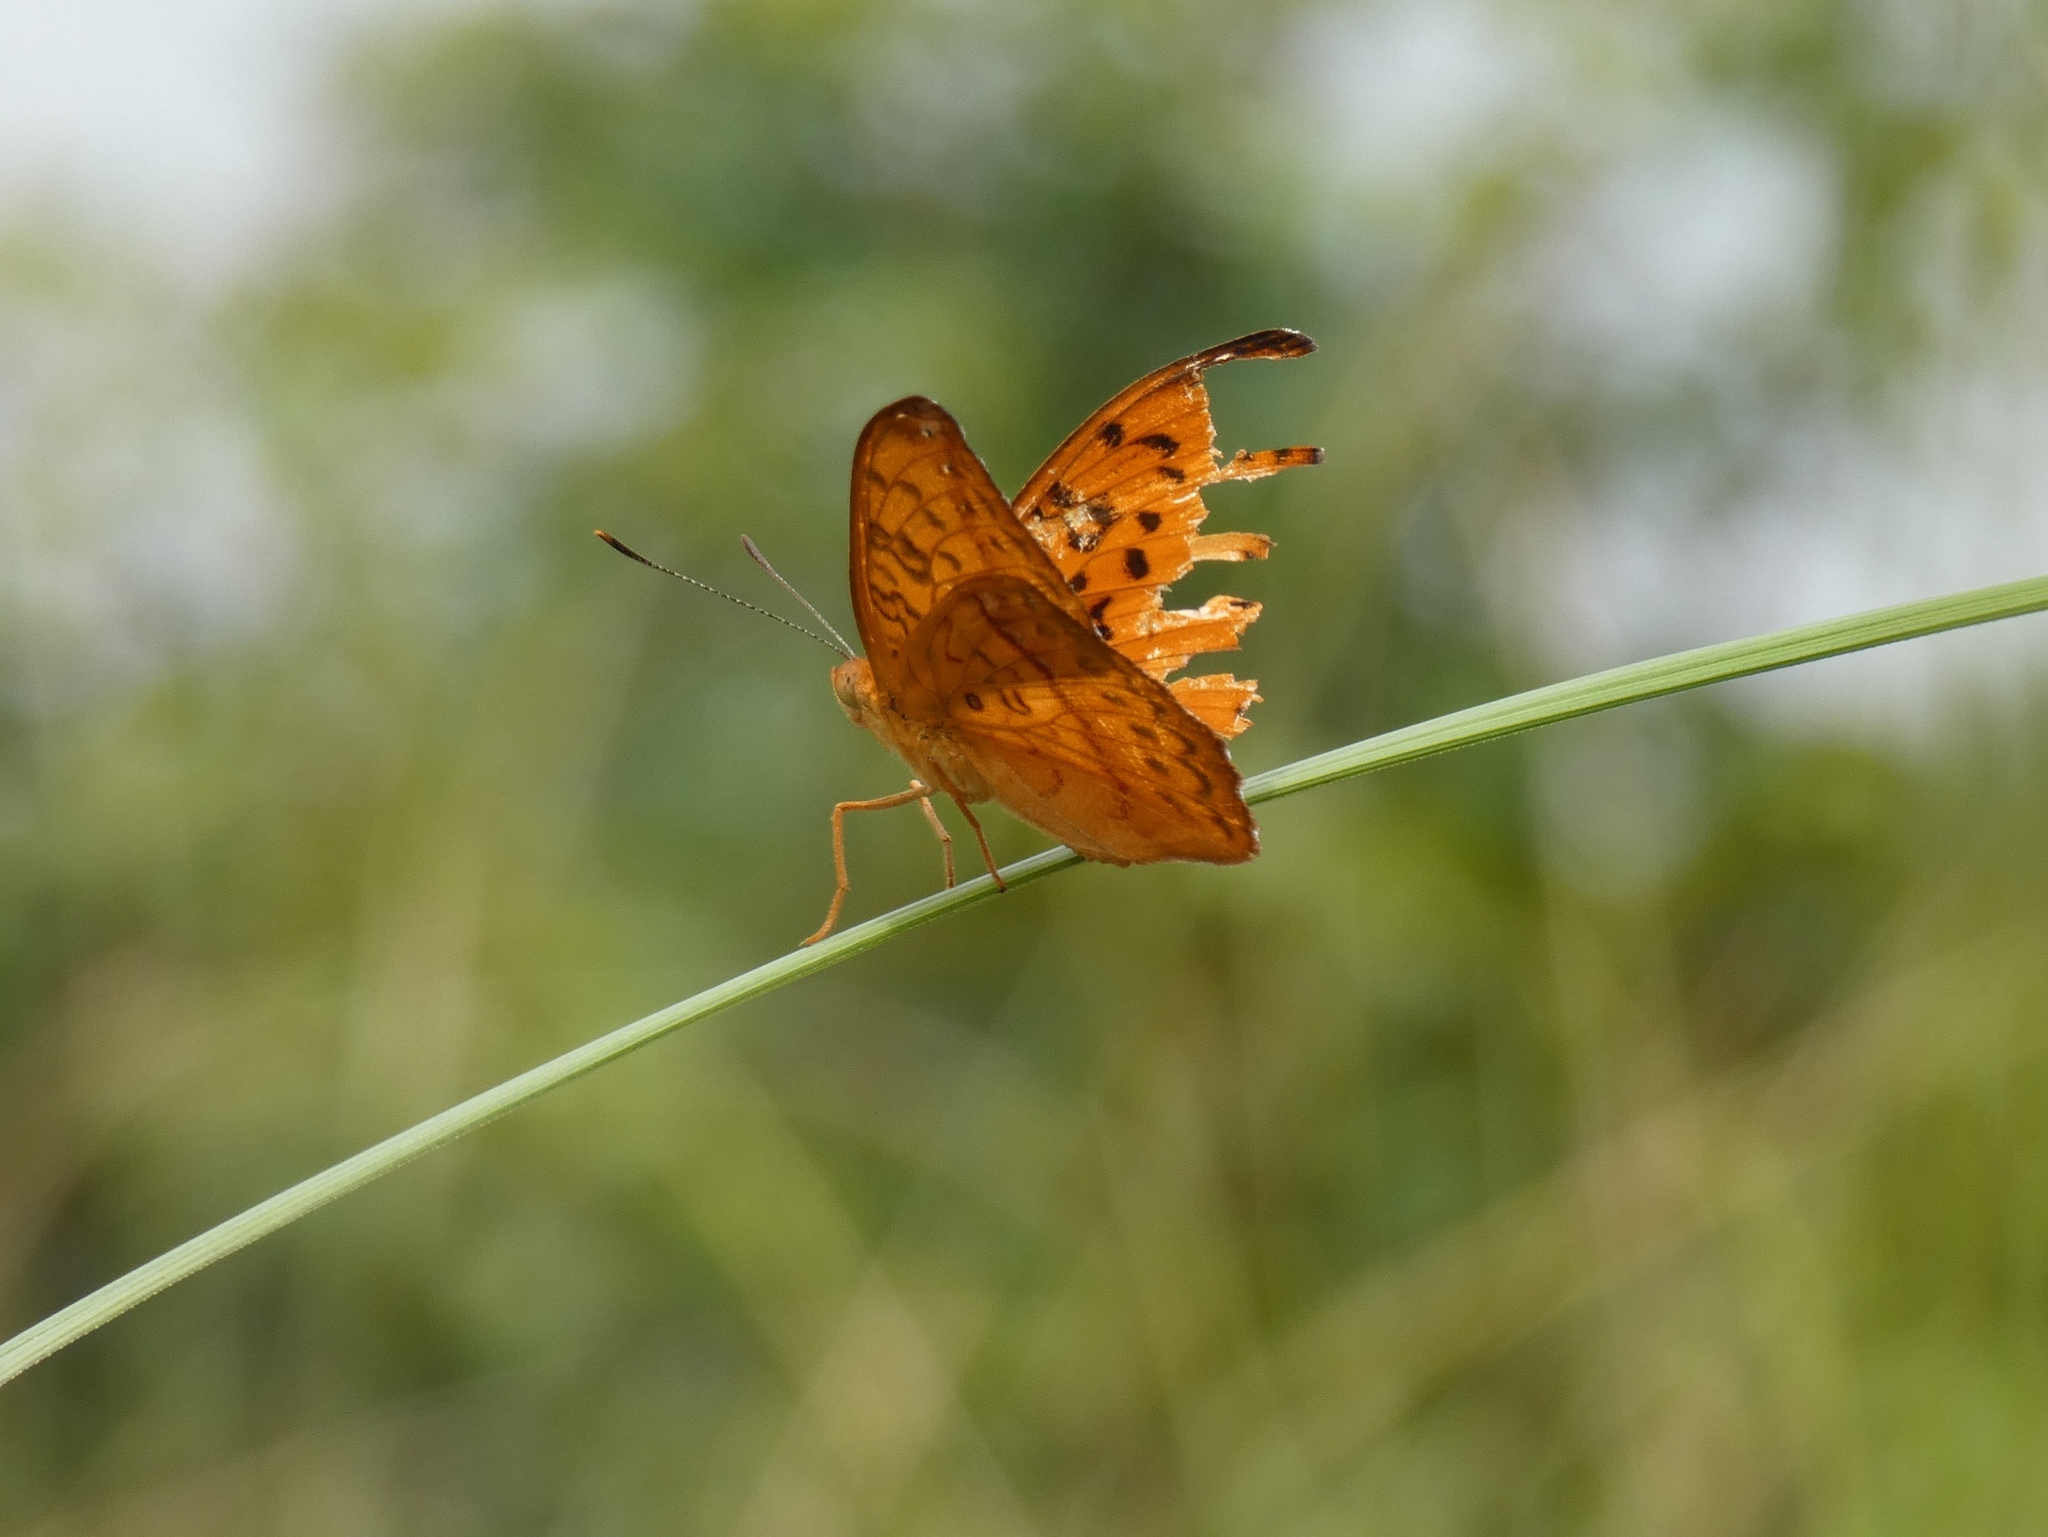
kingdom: Animalia
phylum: Arthropoda
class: Insecta
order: Lepidoptera
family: Nymphalidae
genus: Pseudacraea
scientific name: Pseudacraea Pseudargynnis hegemone
